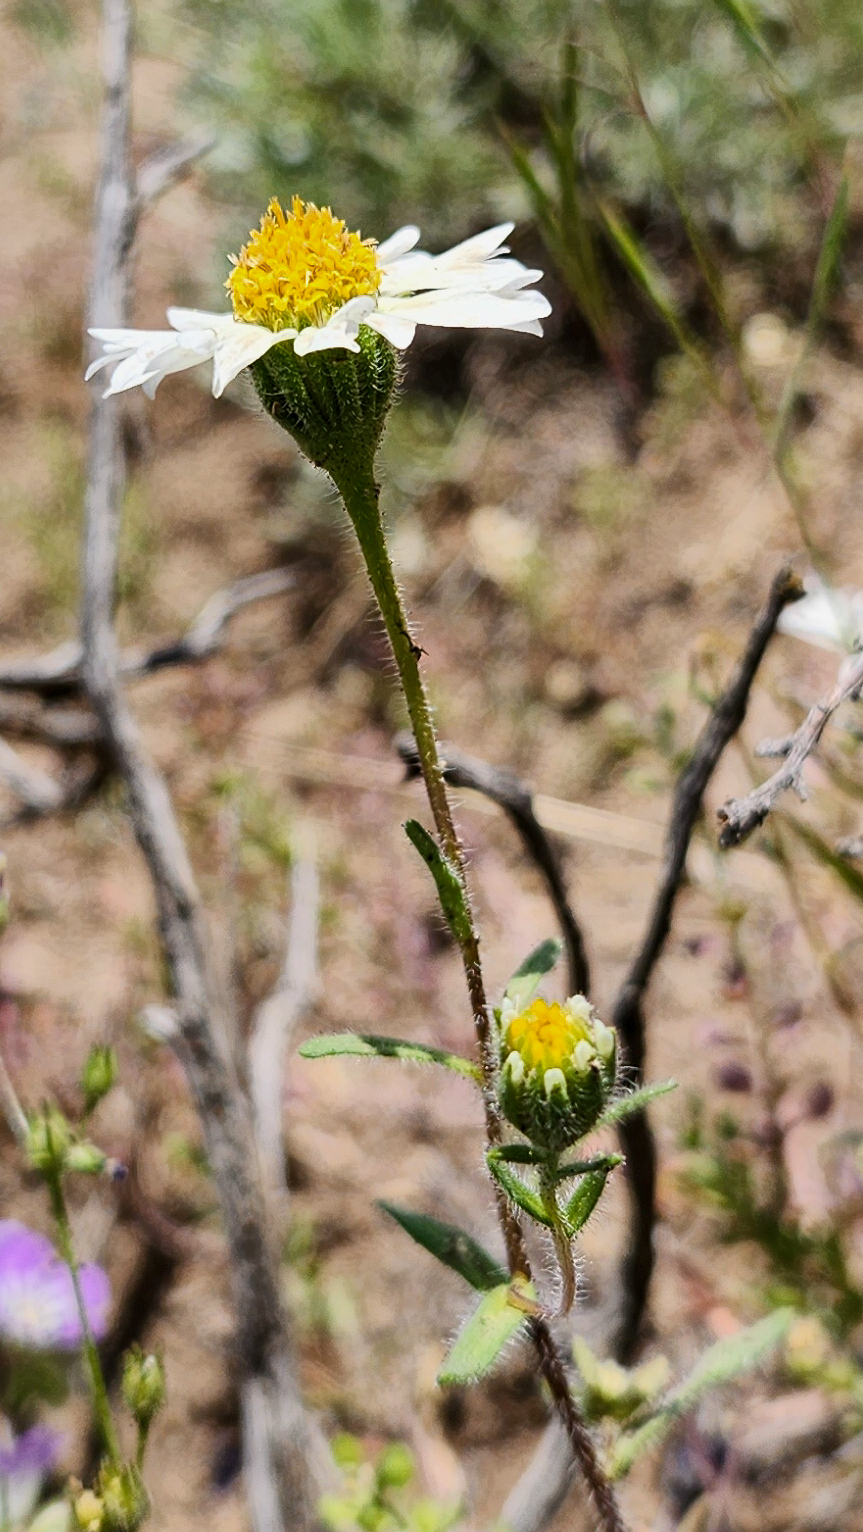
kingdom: Plantae
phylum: Tracheophyta
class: Magnoliopsida
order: Asterales
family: Asteraceae
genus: Layia
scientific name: Layia glandulosa
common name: White layia
